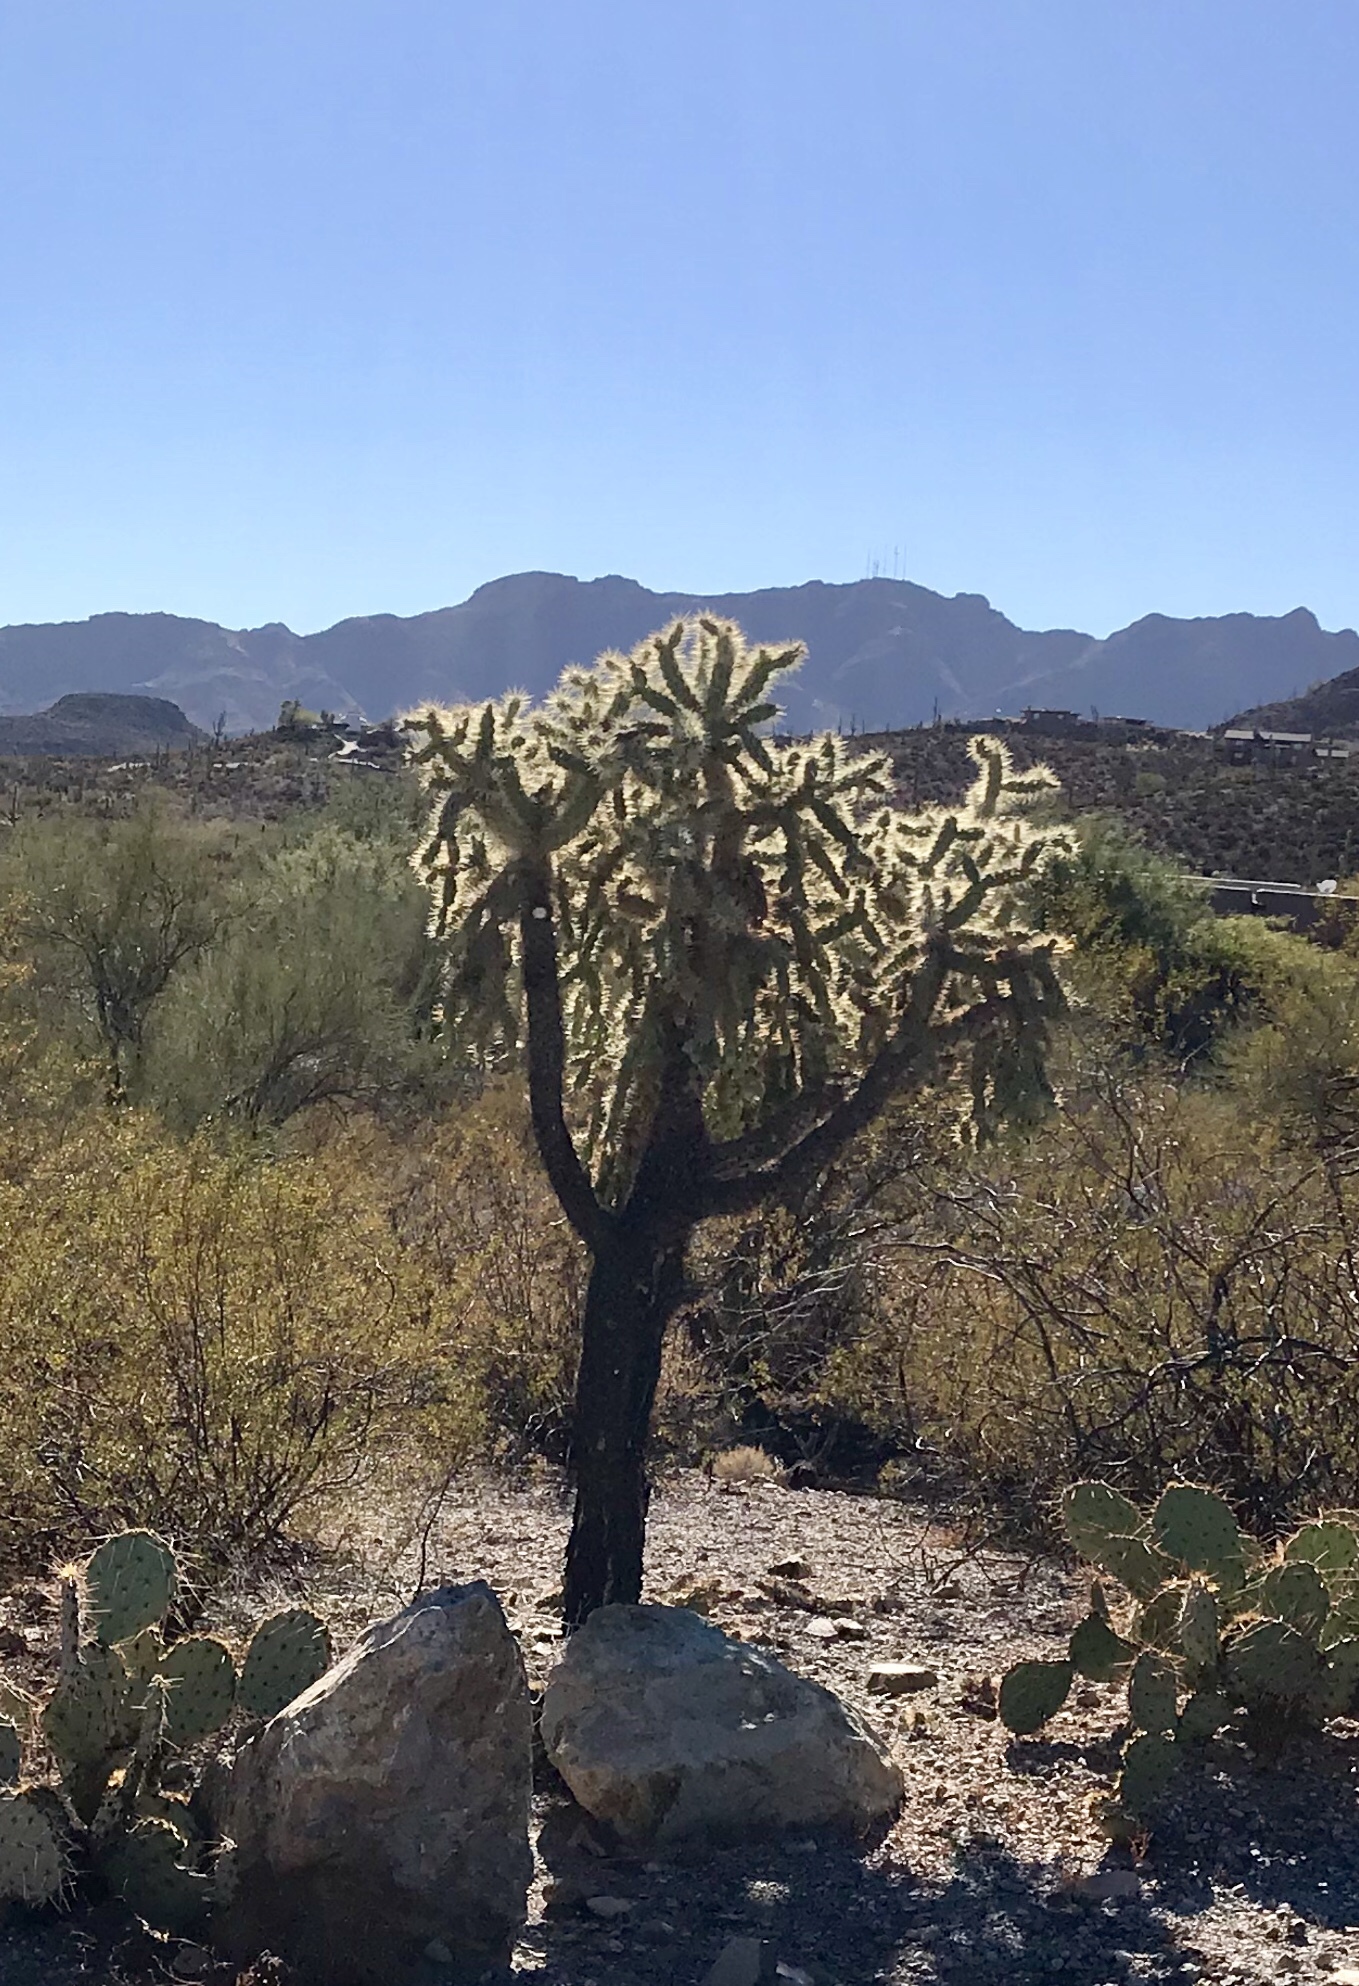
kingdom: Plantae
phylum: Tracheophyta
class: Magnoliopsida
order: Caryophyllales
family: Cactaceae
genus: Cylindropuntia
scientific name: Cylindropuntia fulgida
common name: Jumping cholla
